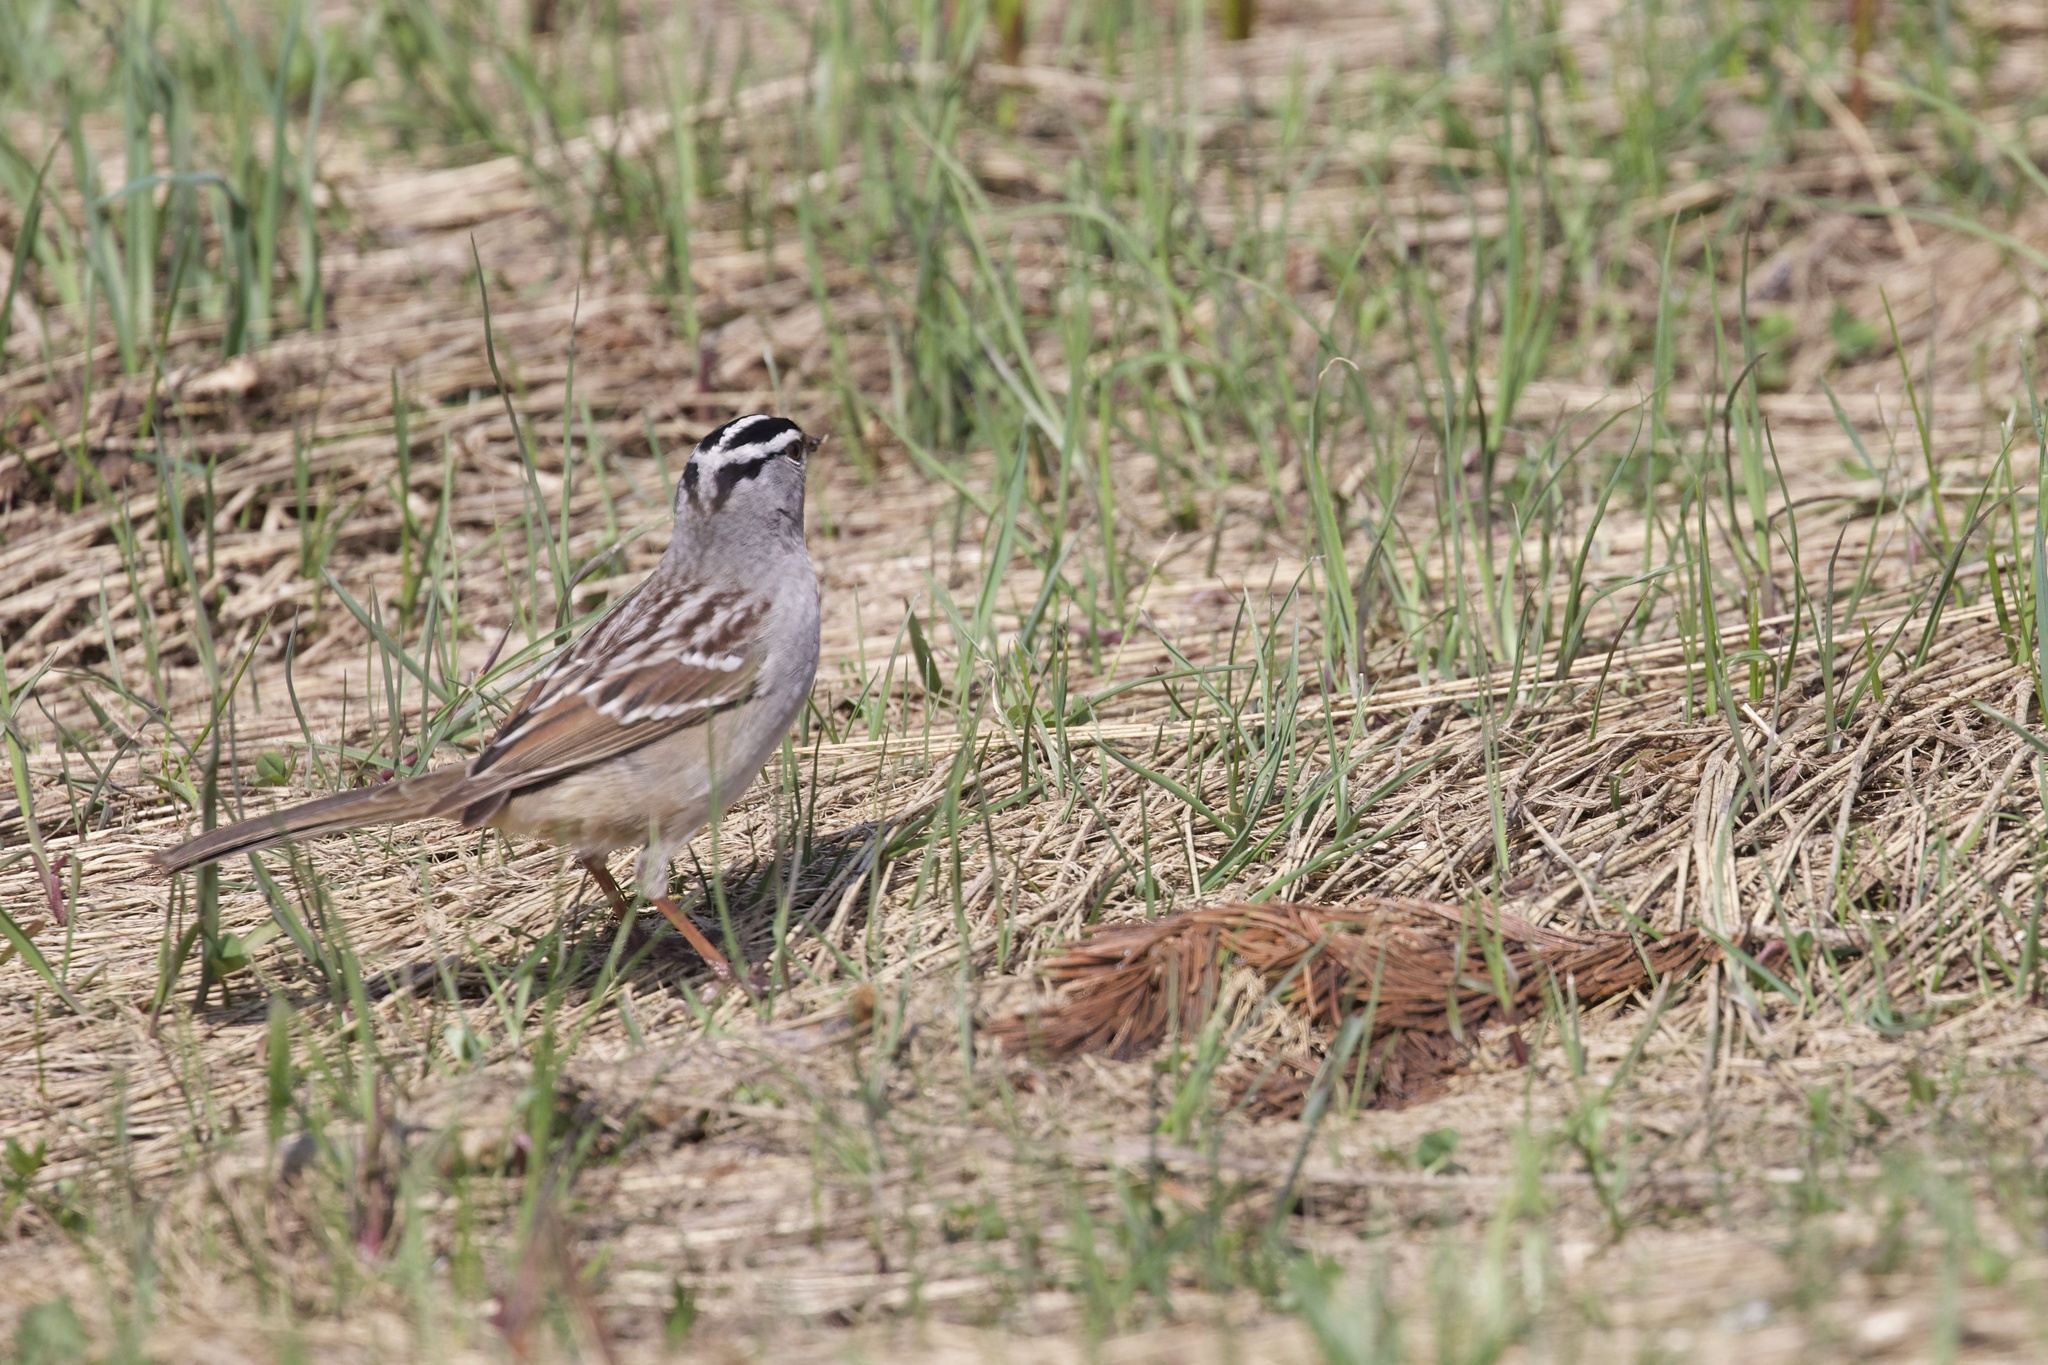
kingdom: Animalia
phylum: Chordata
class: Aves
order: Passeriformes
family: Passerellidae
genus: Zonotrichia
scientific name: Zonotrichia leucophrys
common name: White-crowned sparrow
